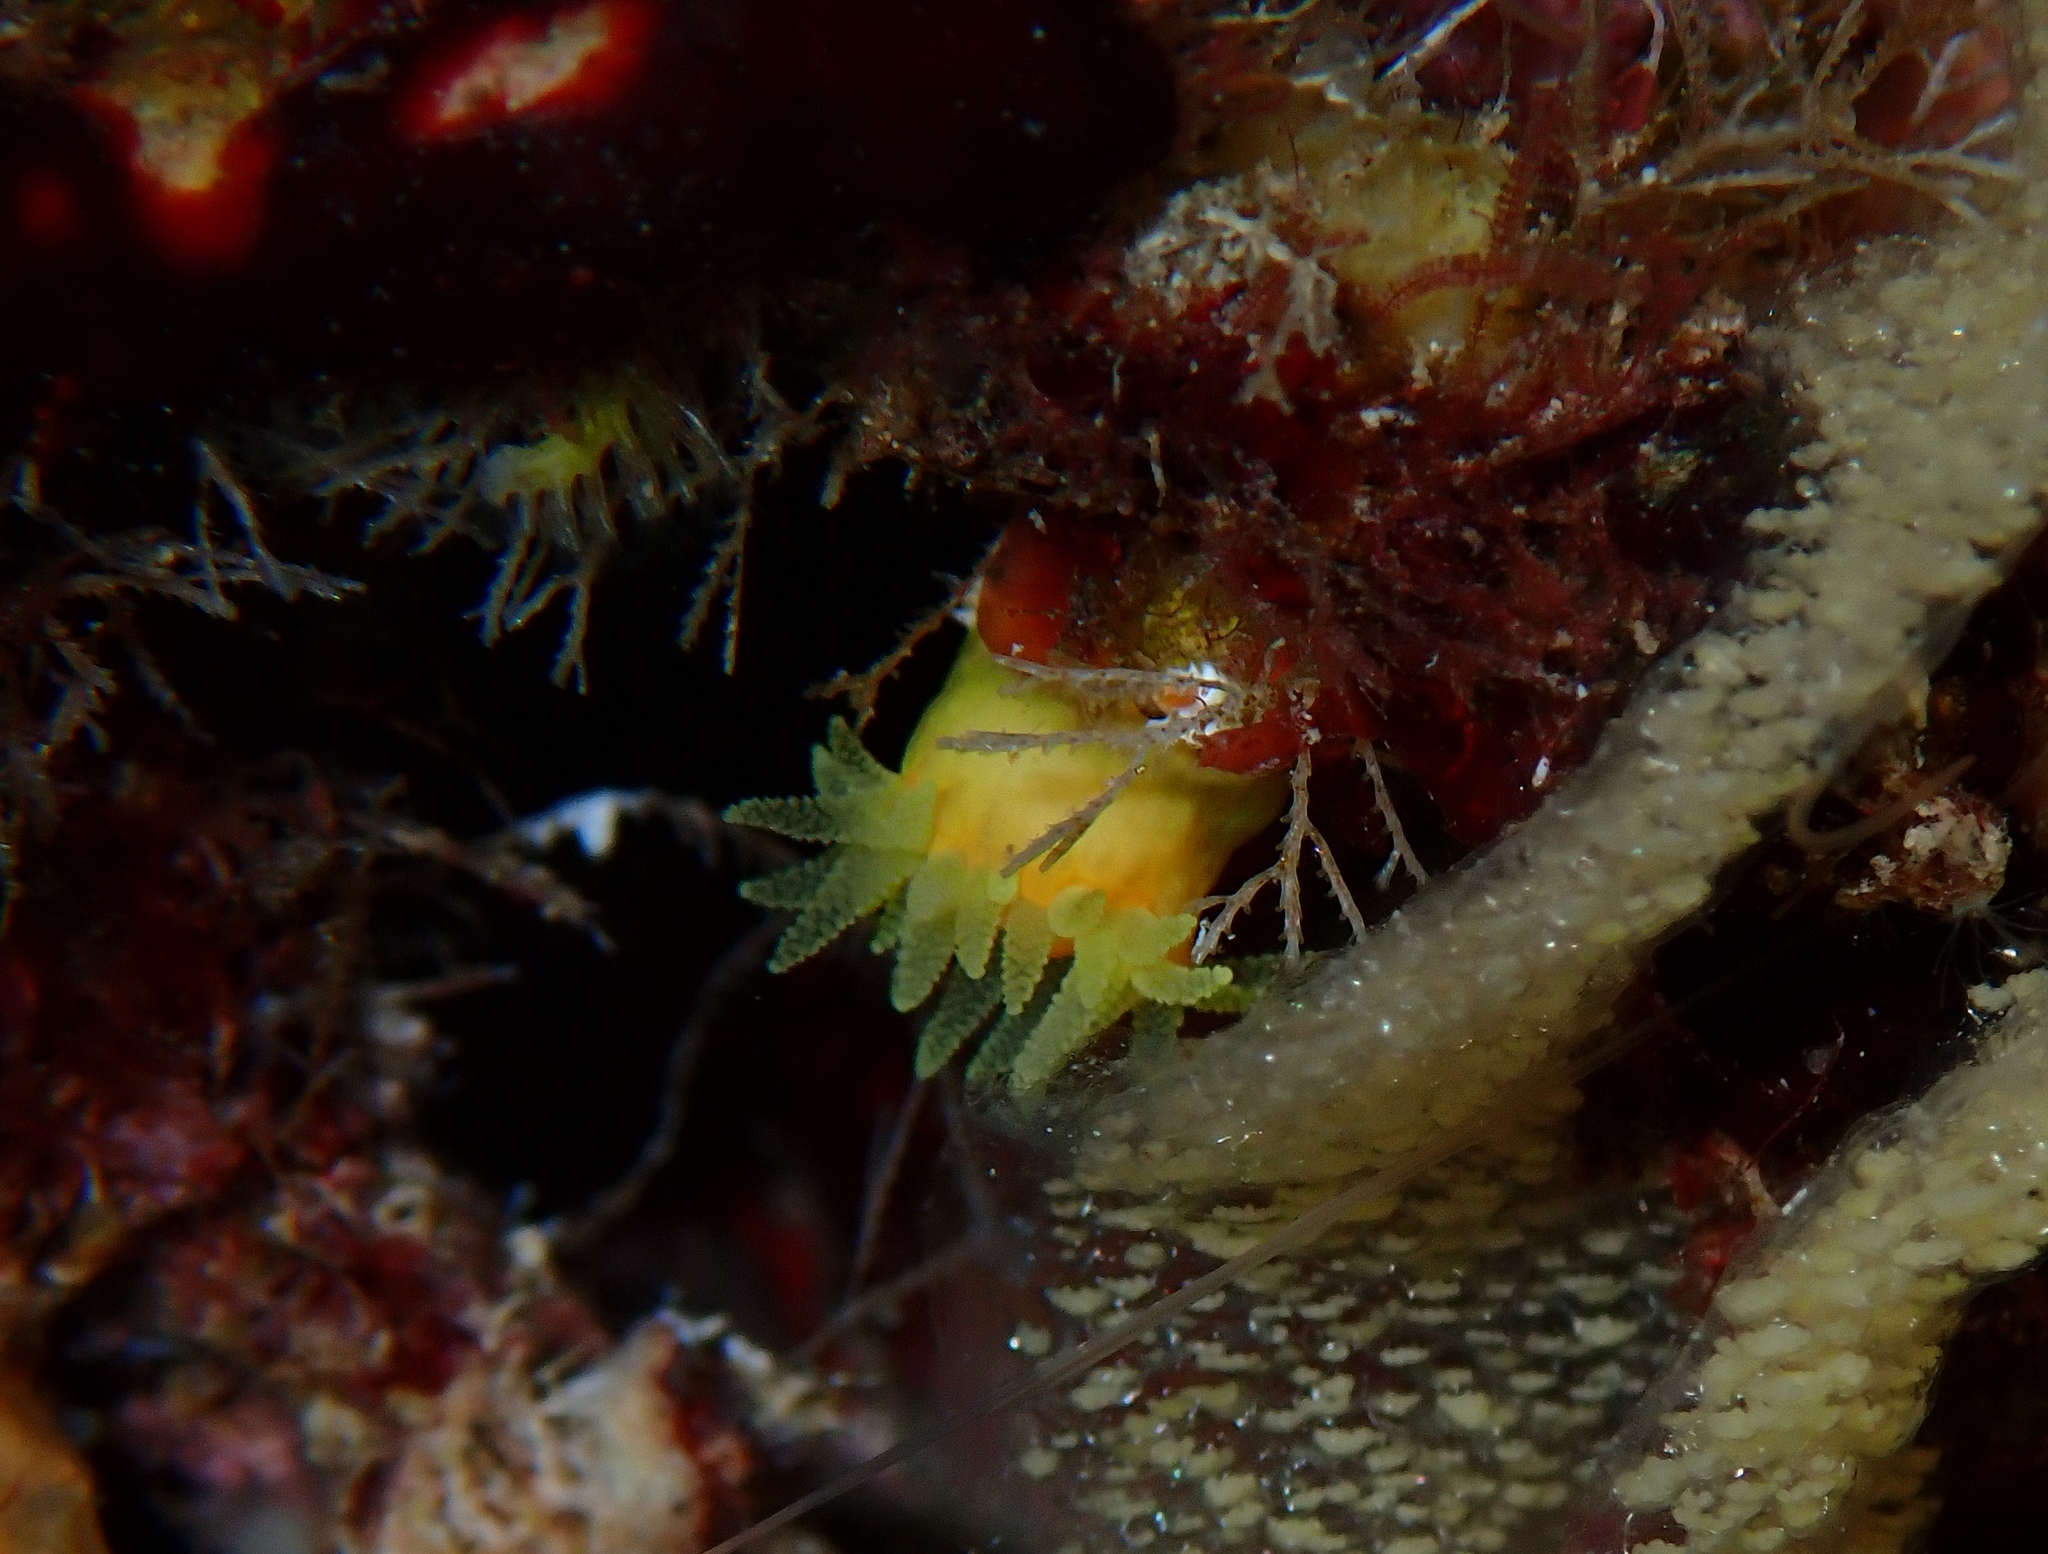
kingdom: Animalia
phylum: Cnidaria
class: Anthozoa
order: Scleractinia
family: Dendrophylliidae
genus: Leptopsammia
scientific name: Leptopsammia pruvoti
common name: Sunset cup coral
